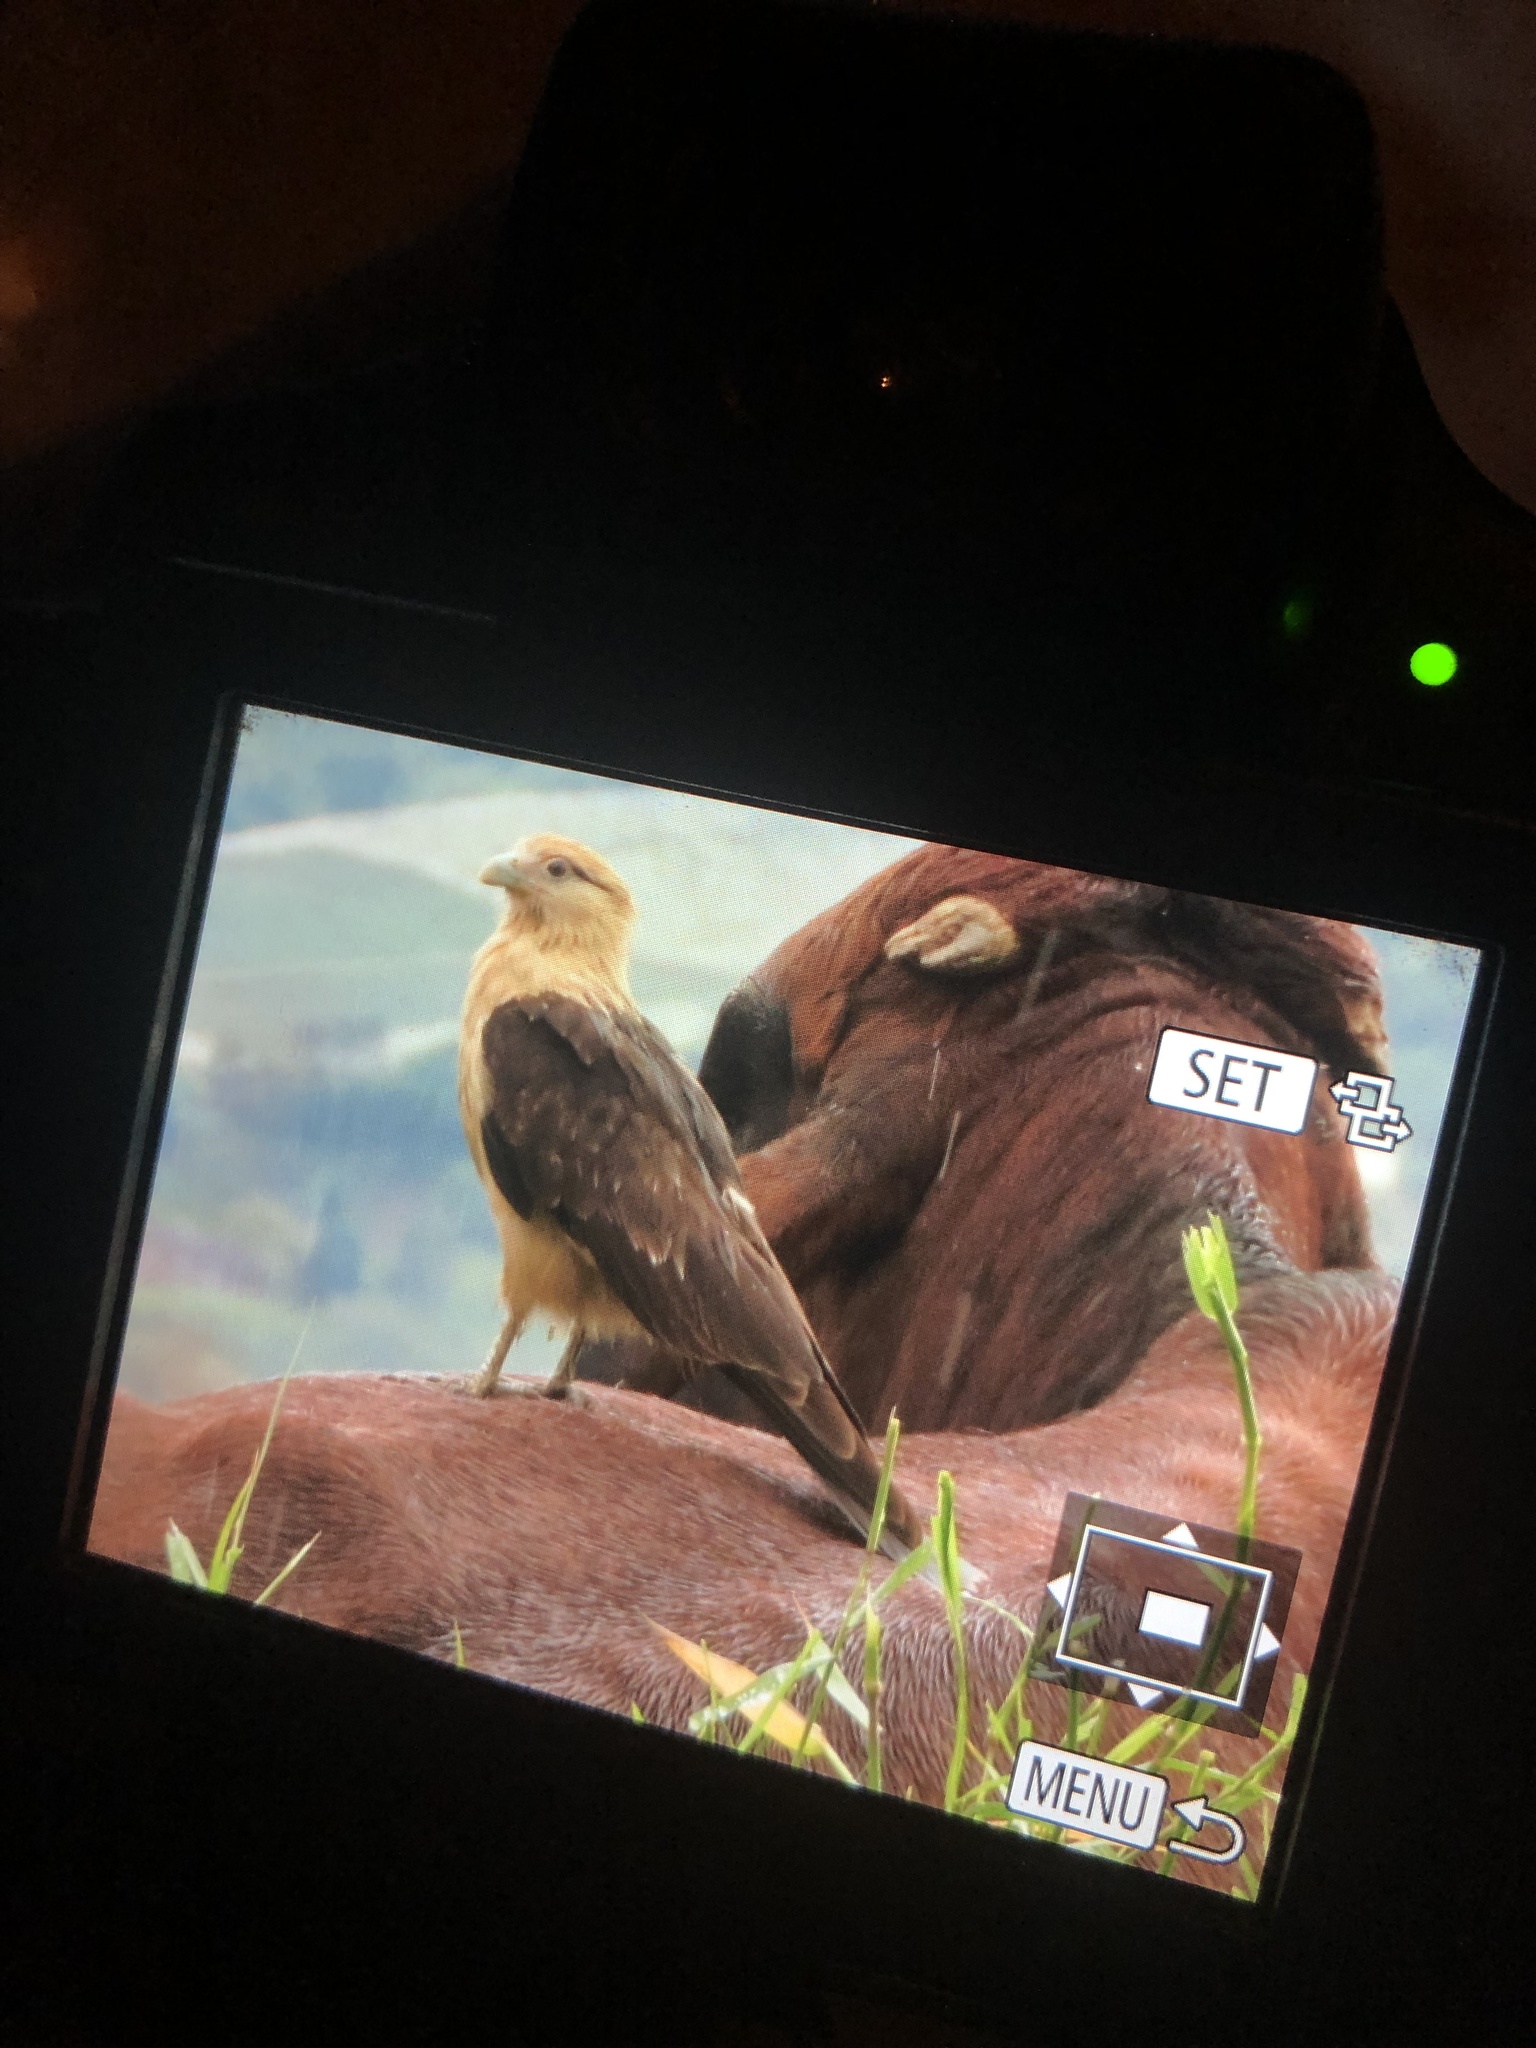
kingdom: Animalia
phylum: Chordata
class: Aves
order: Falconiformes
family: Falconidae
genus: Daptrius
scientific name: Daptrius
